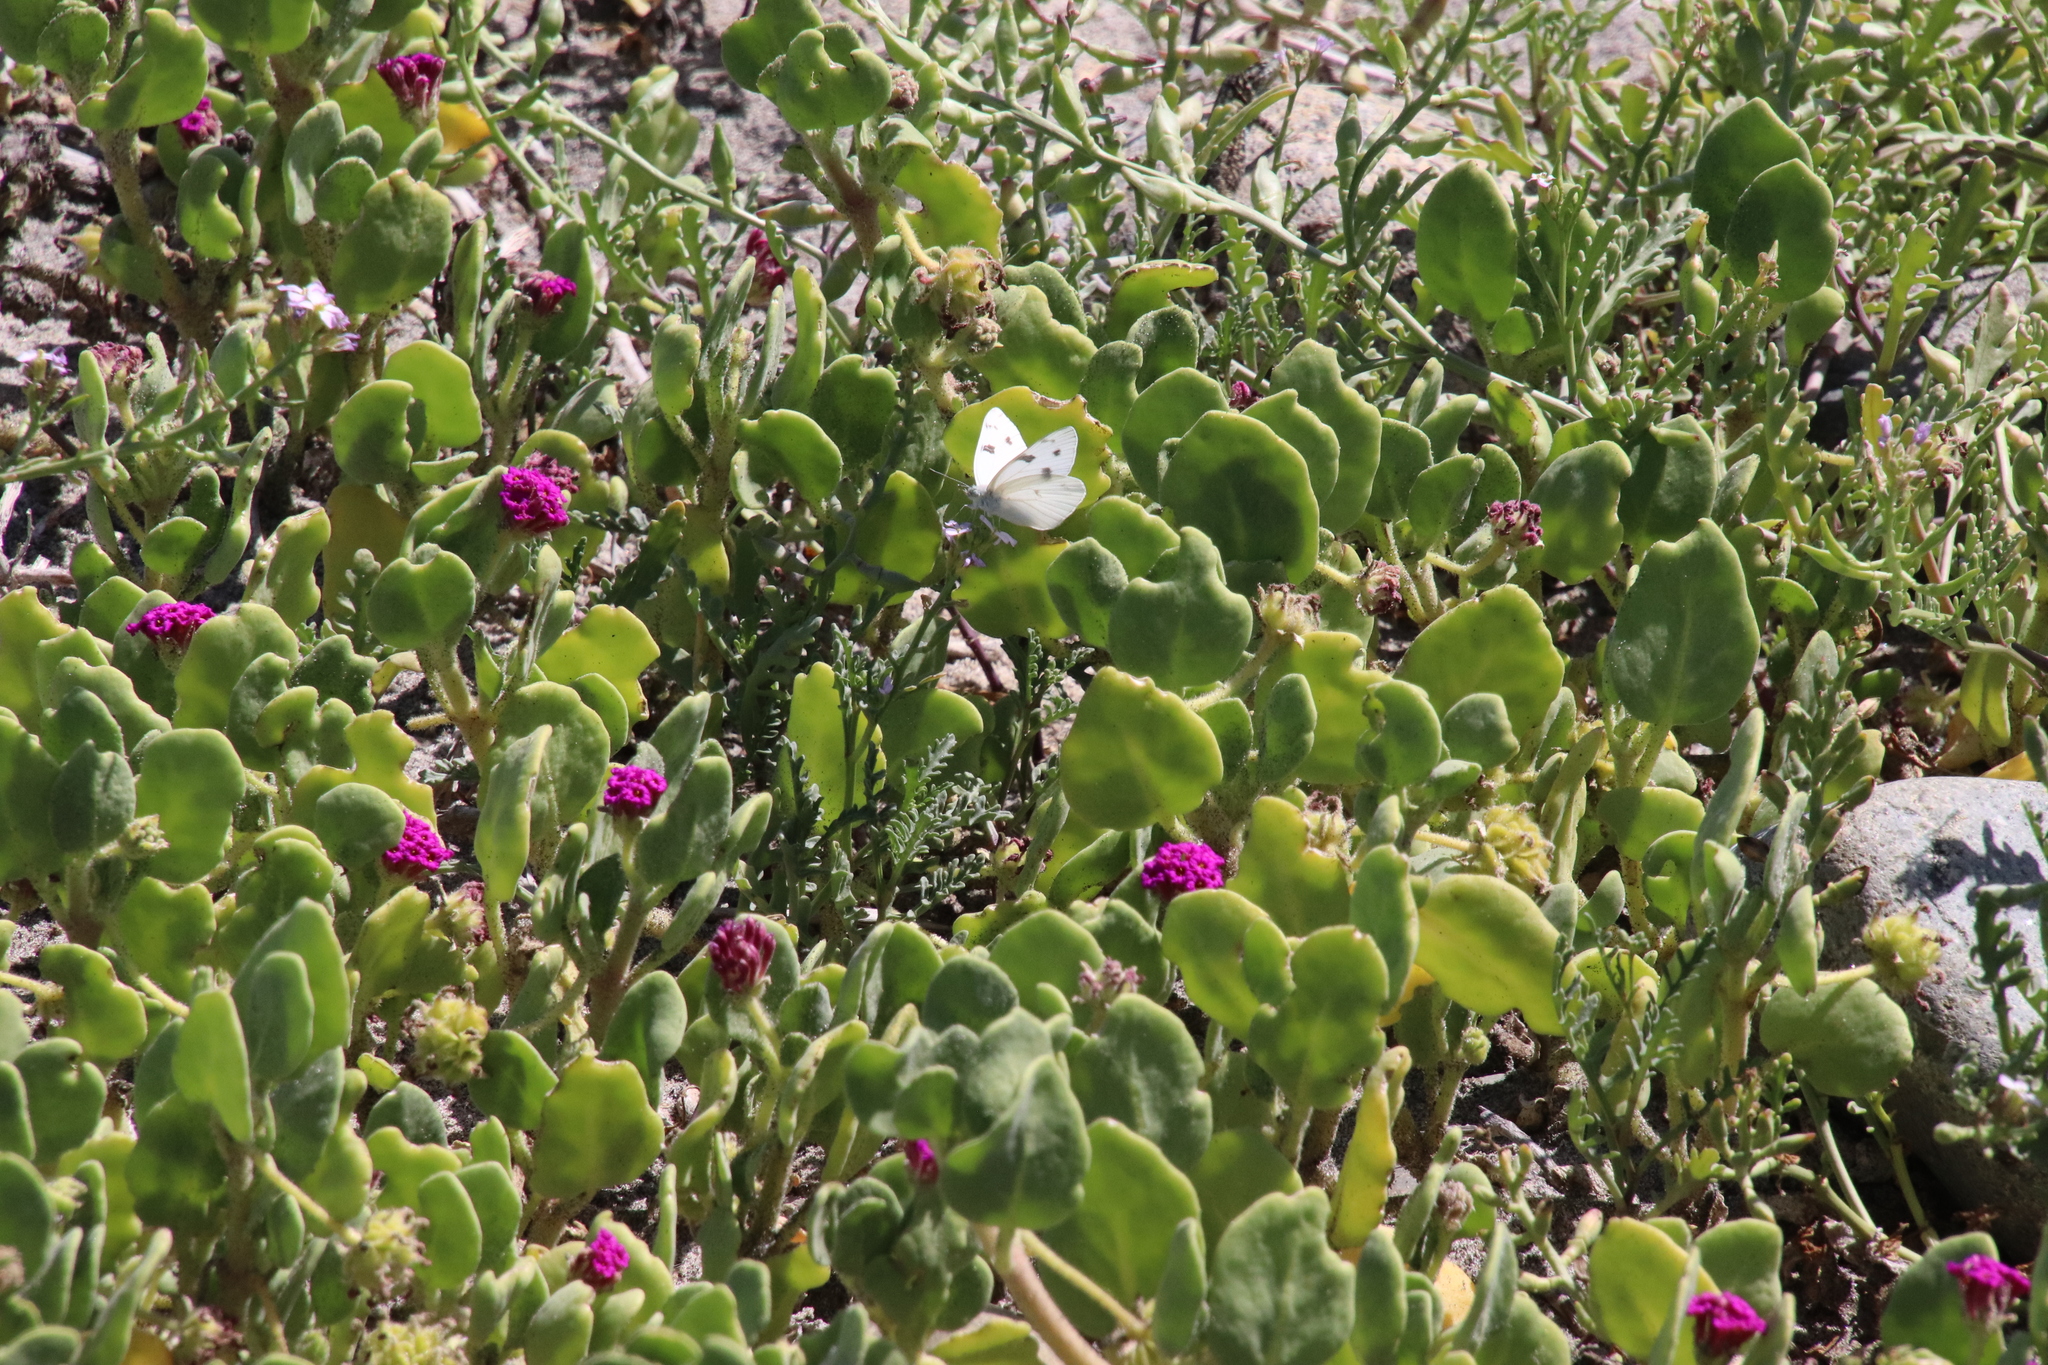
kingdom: Animalia
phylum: Arthropoda
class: Insecta
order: Lepidoptera
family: Pieridae
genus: Pontia
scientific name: Pontia protodice
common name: Checkered white
